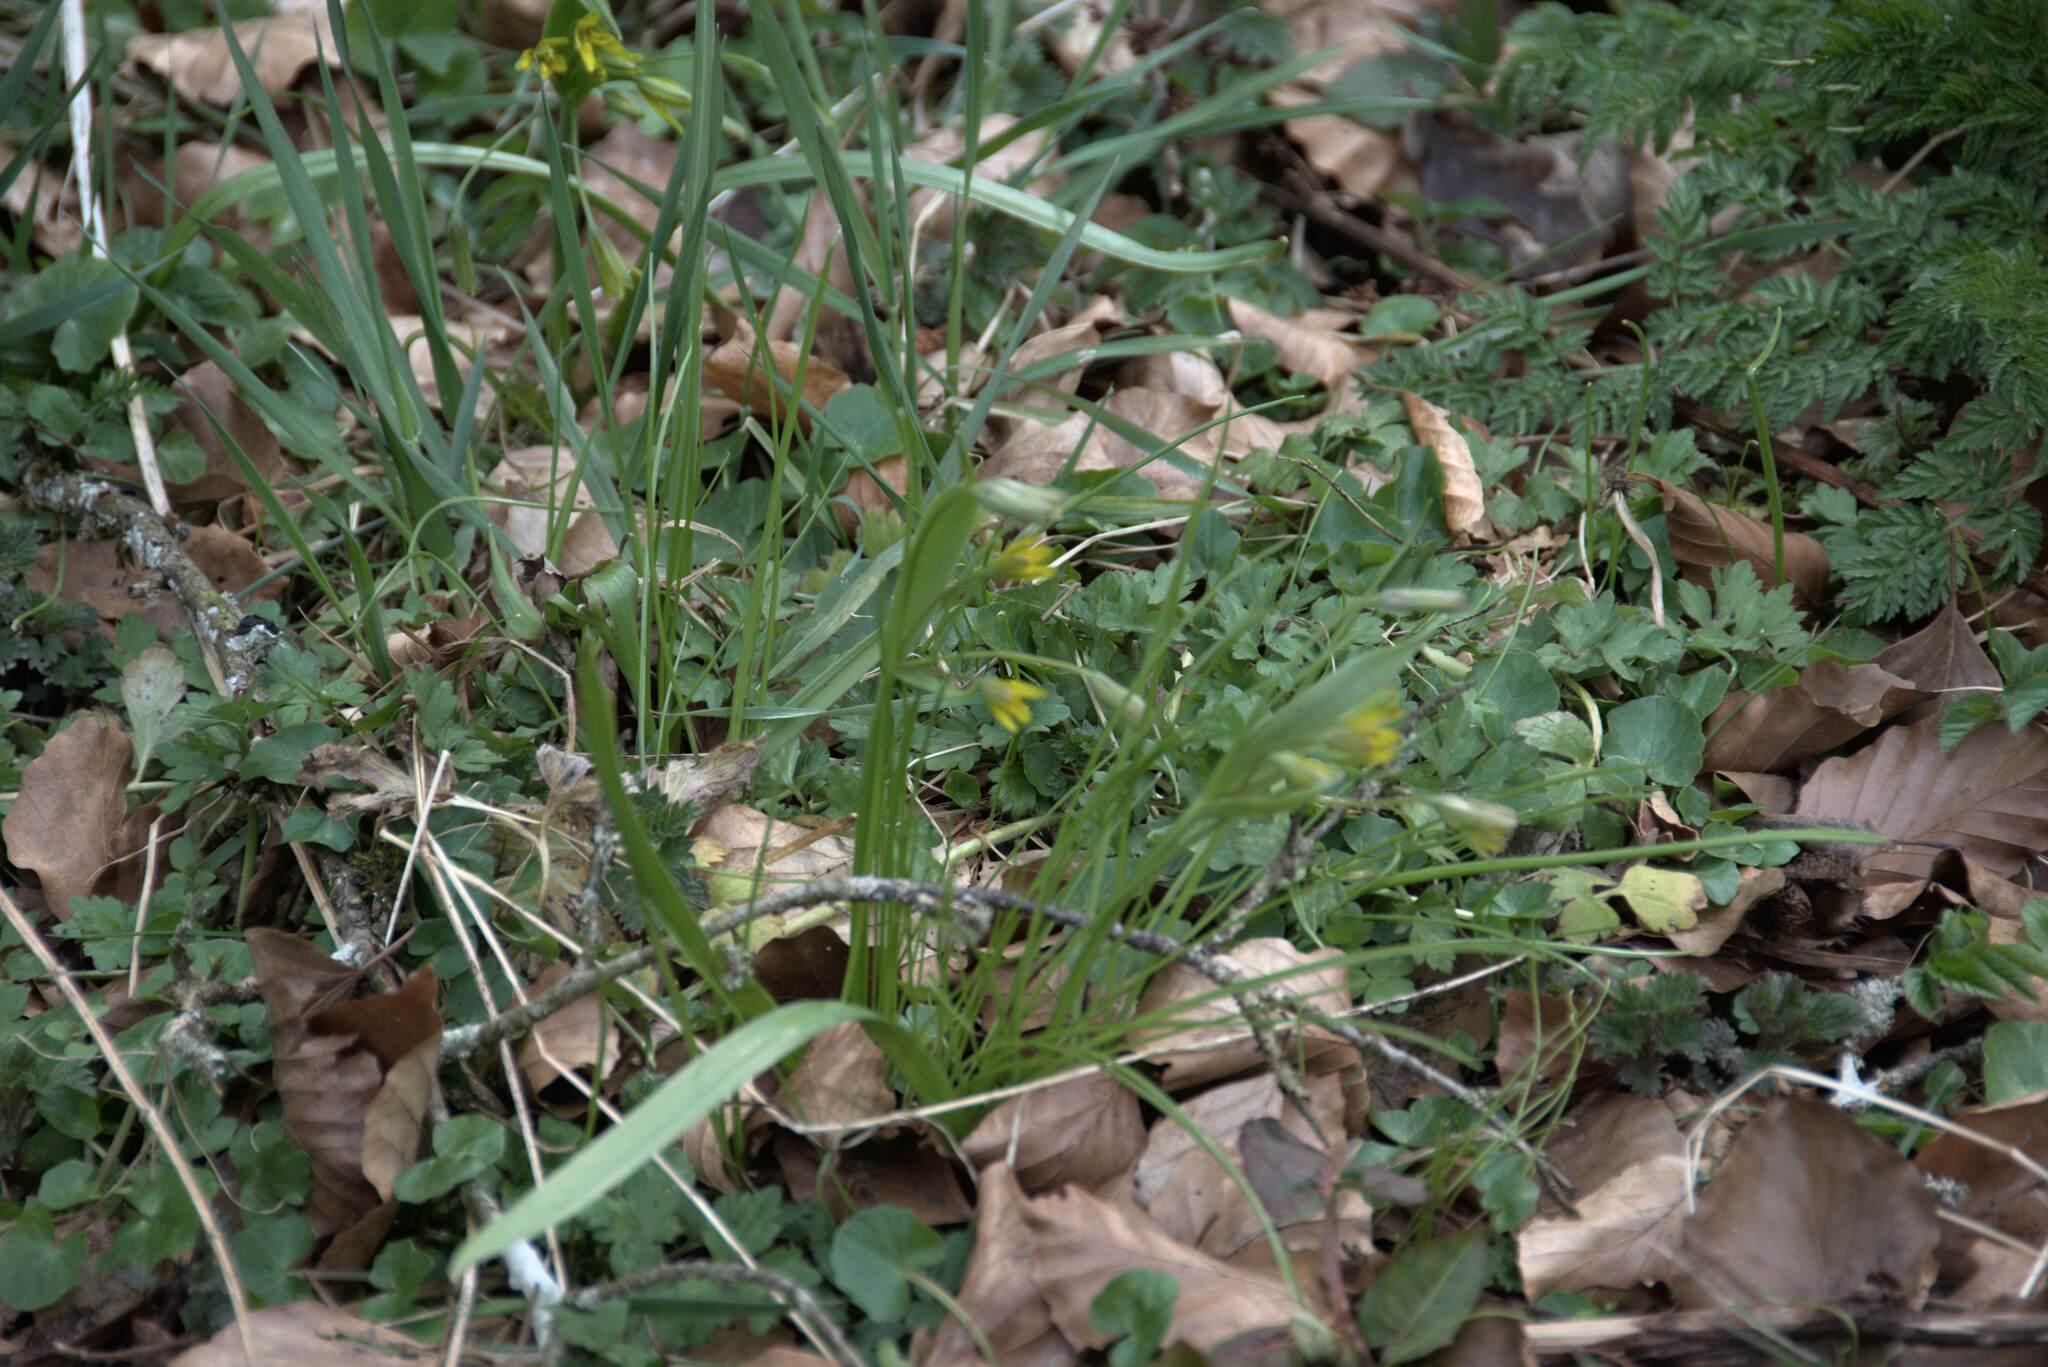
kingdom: Plantae
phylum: Tracheophyta
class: Liliopsida
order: Liliales
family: Liliaceae
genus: Gagea
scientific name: Gagea lutea
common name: Yellow star-of-bethlehem
